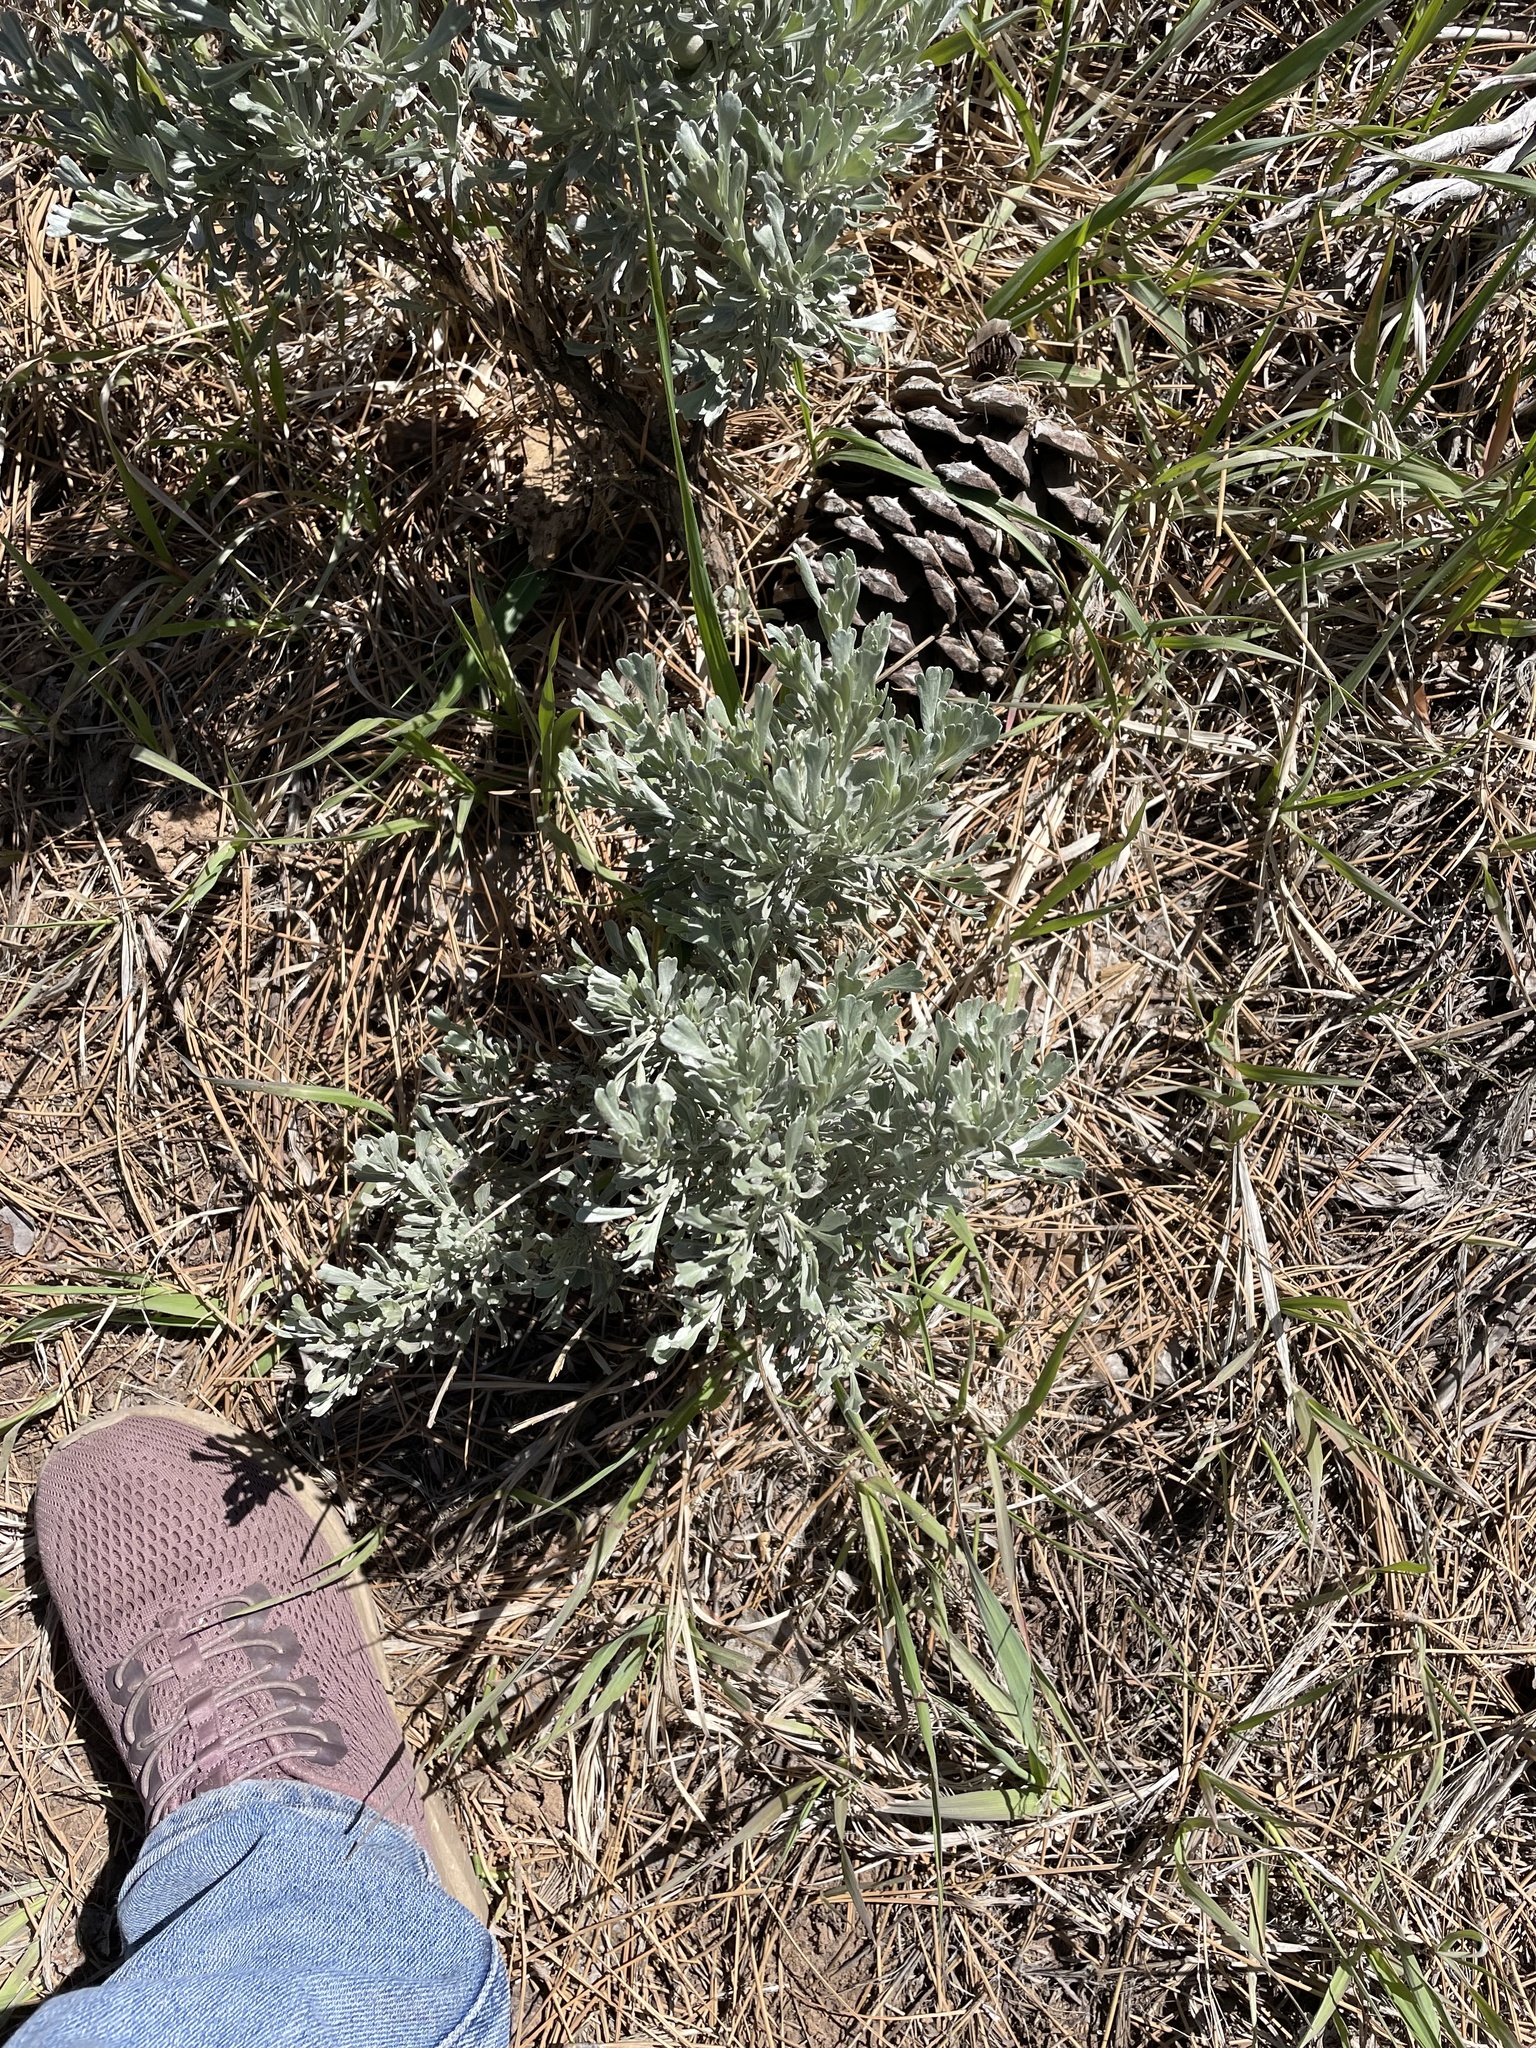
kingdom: Plantae
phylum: Tracheophyta
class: Magnoliopsida
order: Asterales
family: Asteraceae
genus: Artemisia
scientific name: Artemisia tridentata
